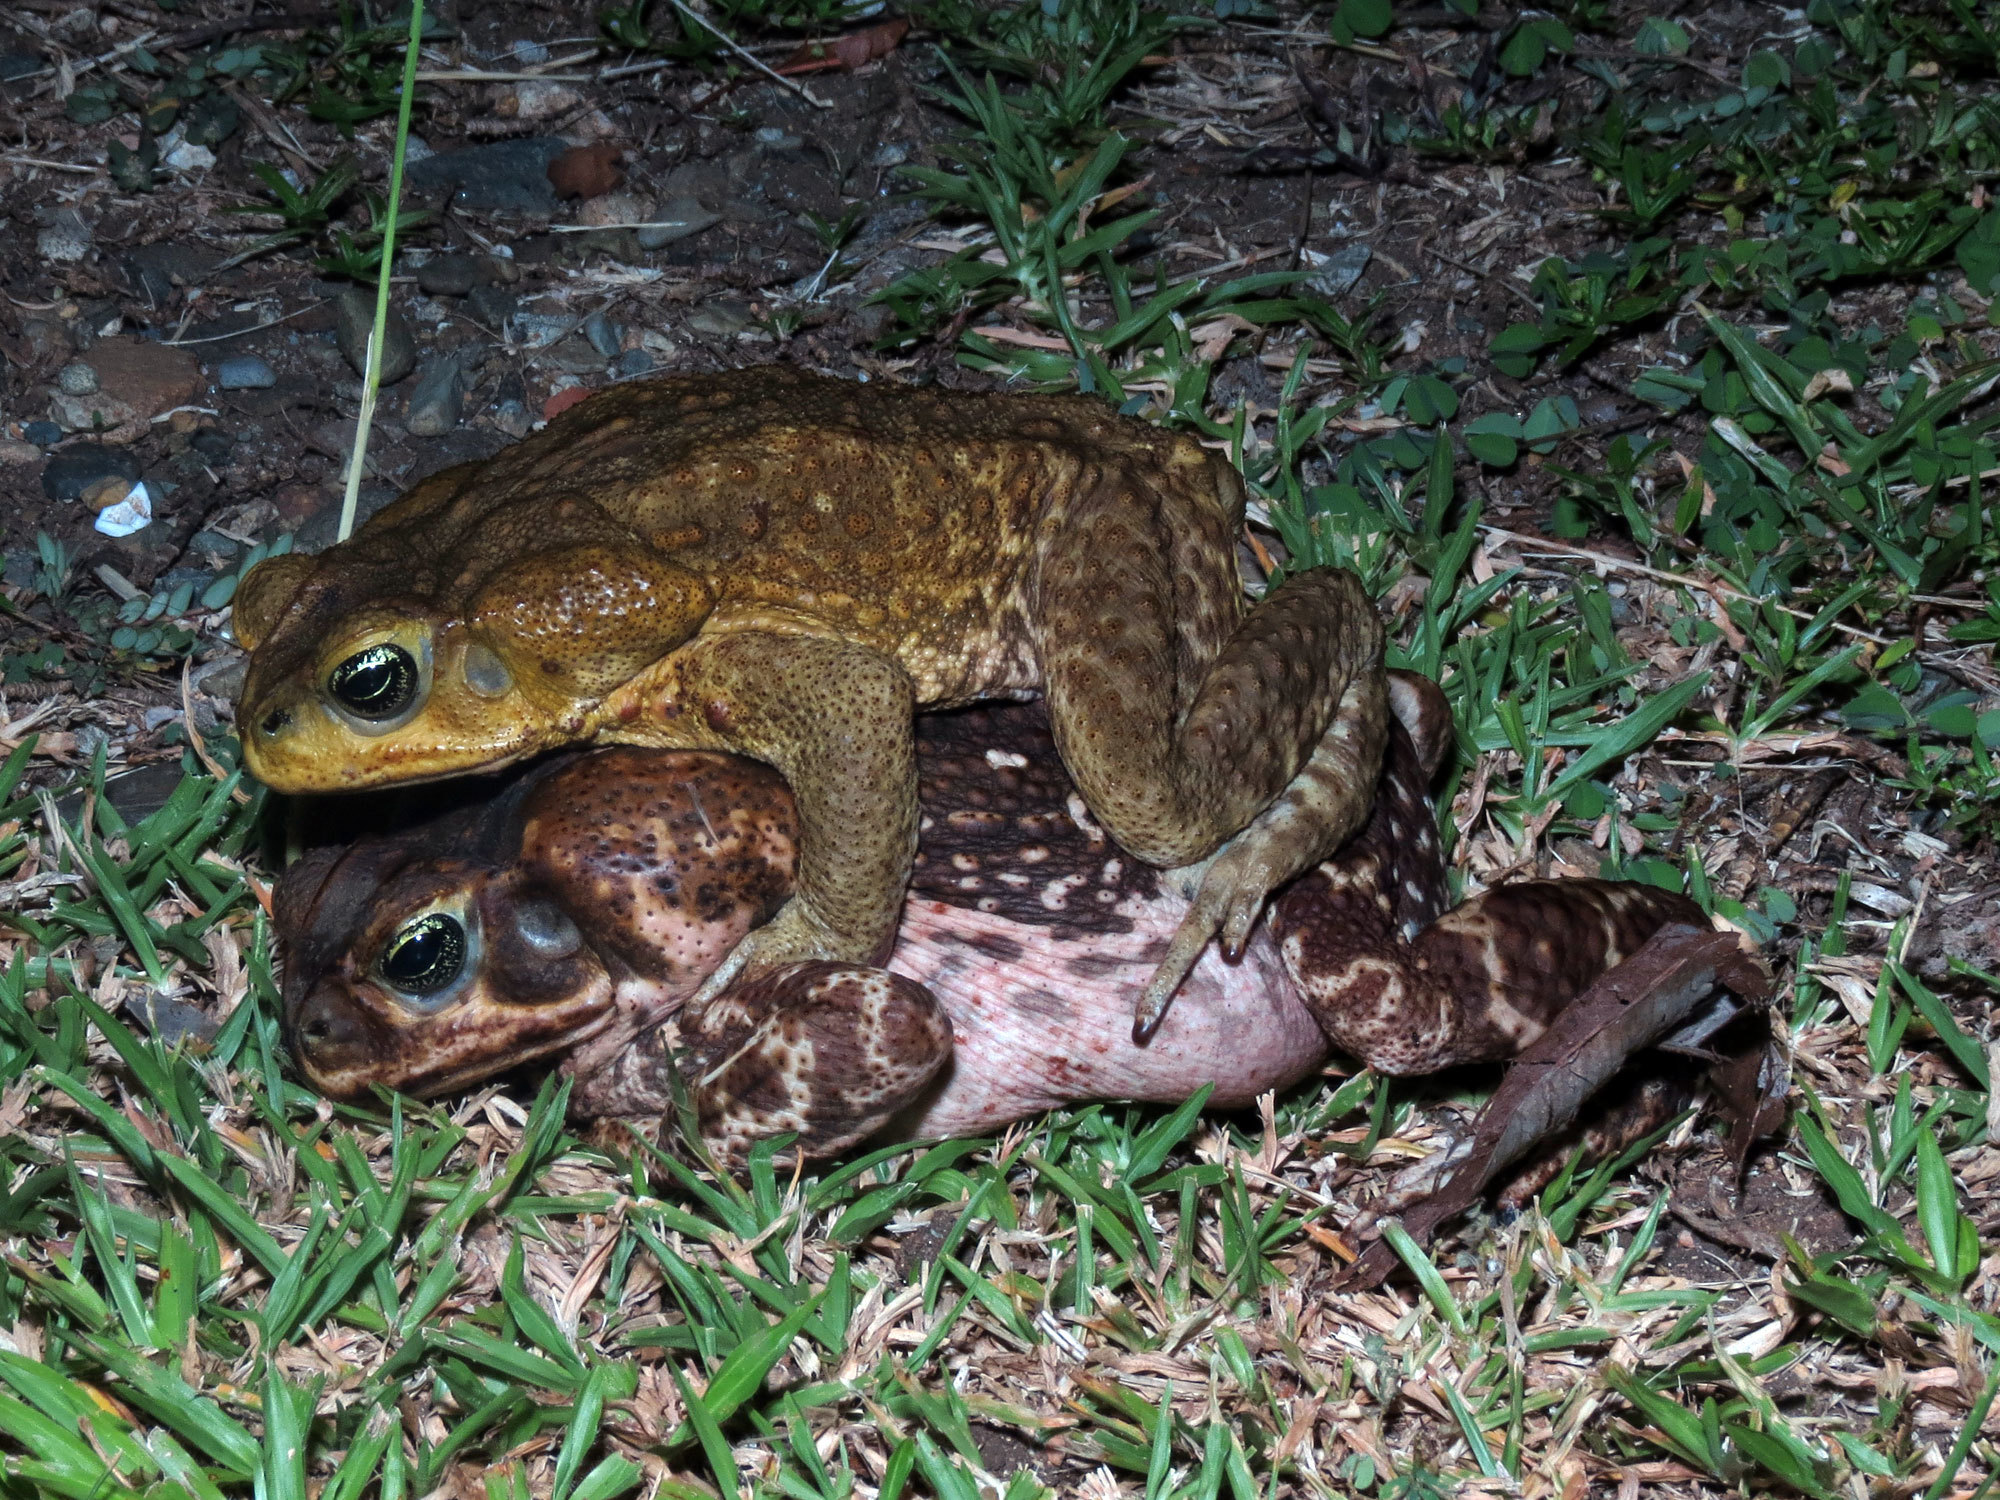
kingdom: Animalia
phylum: Chordata
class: Amphibia
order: Anura
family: Bufonidae
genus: Rhinella
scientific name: Rhinella horribilis
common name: Mesoamerican cane toad
